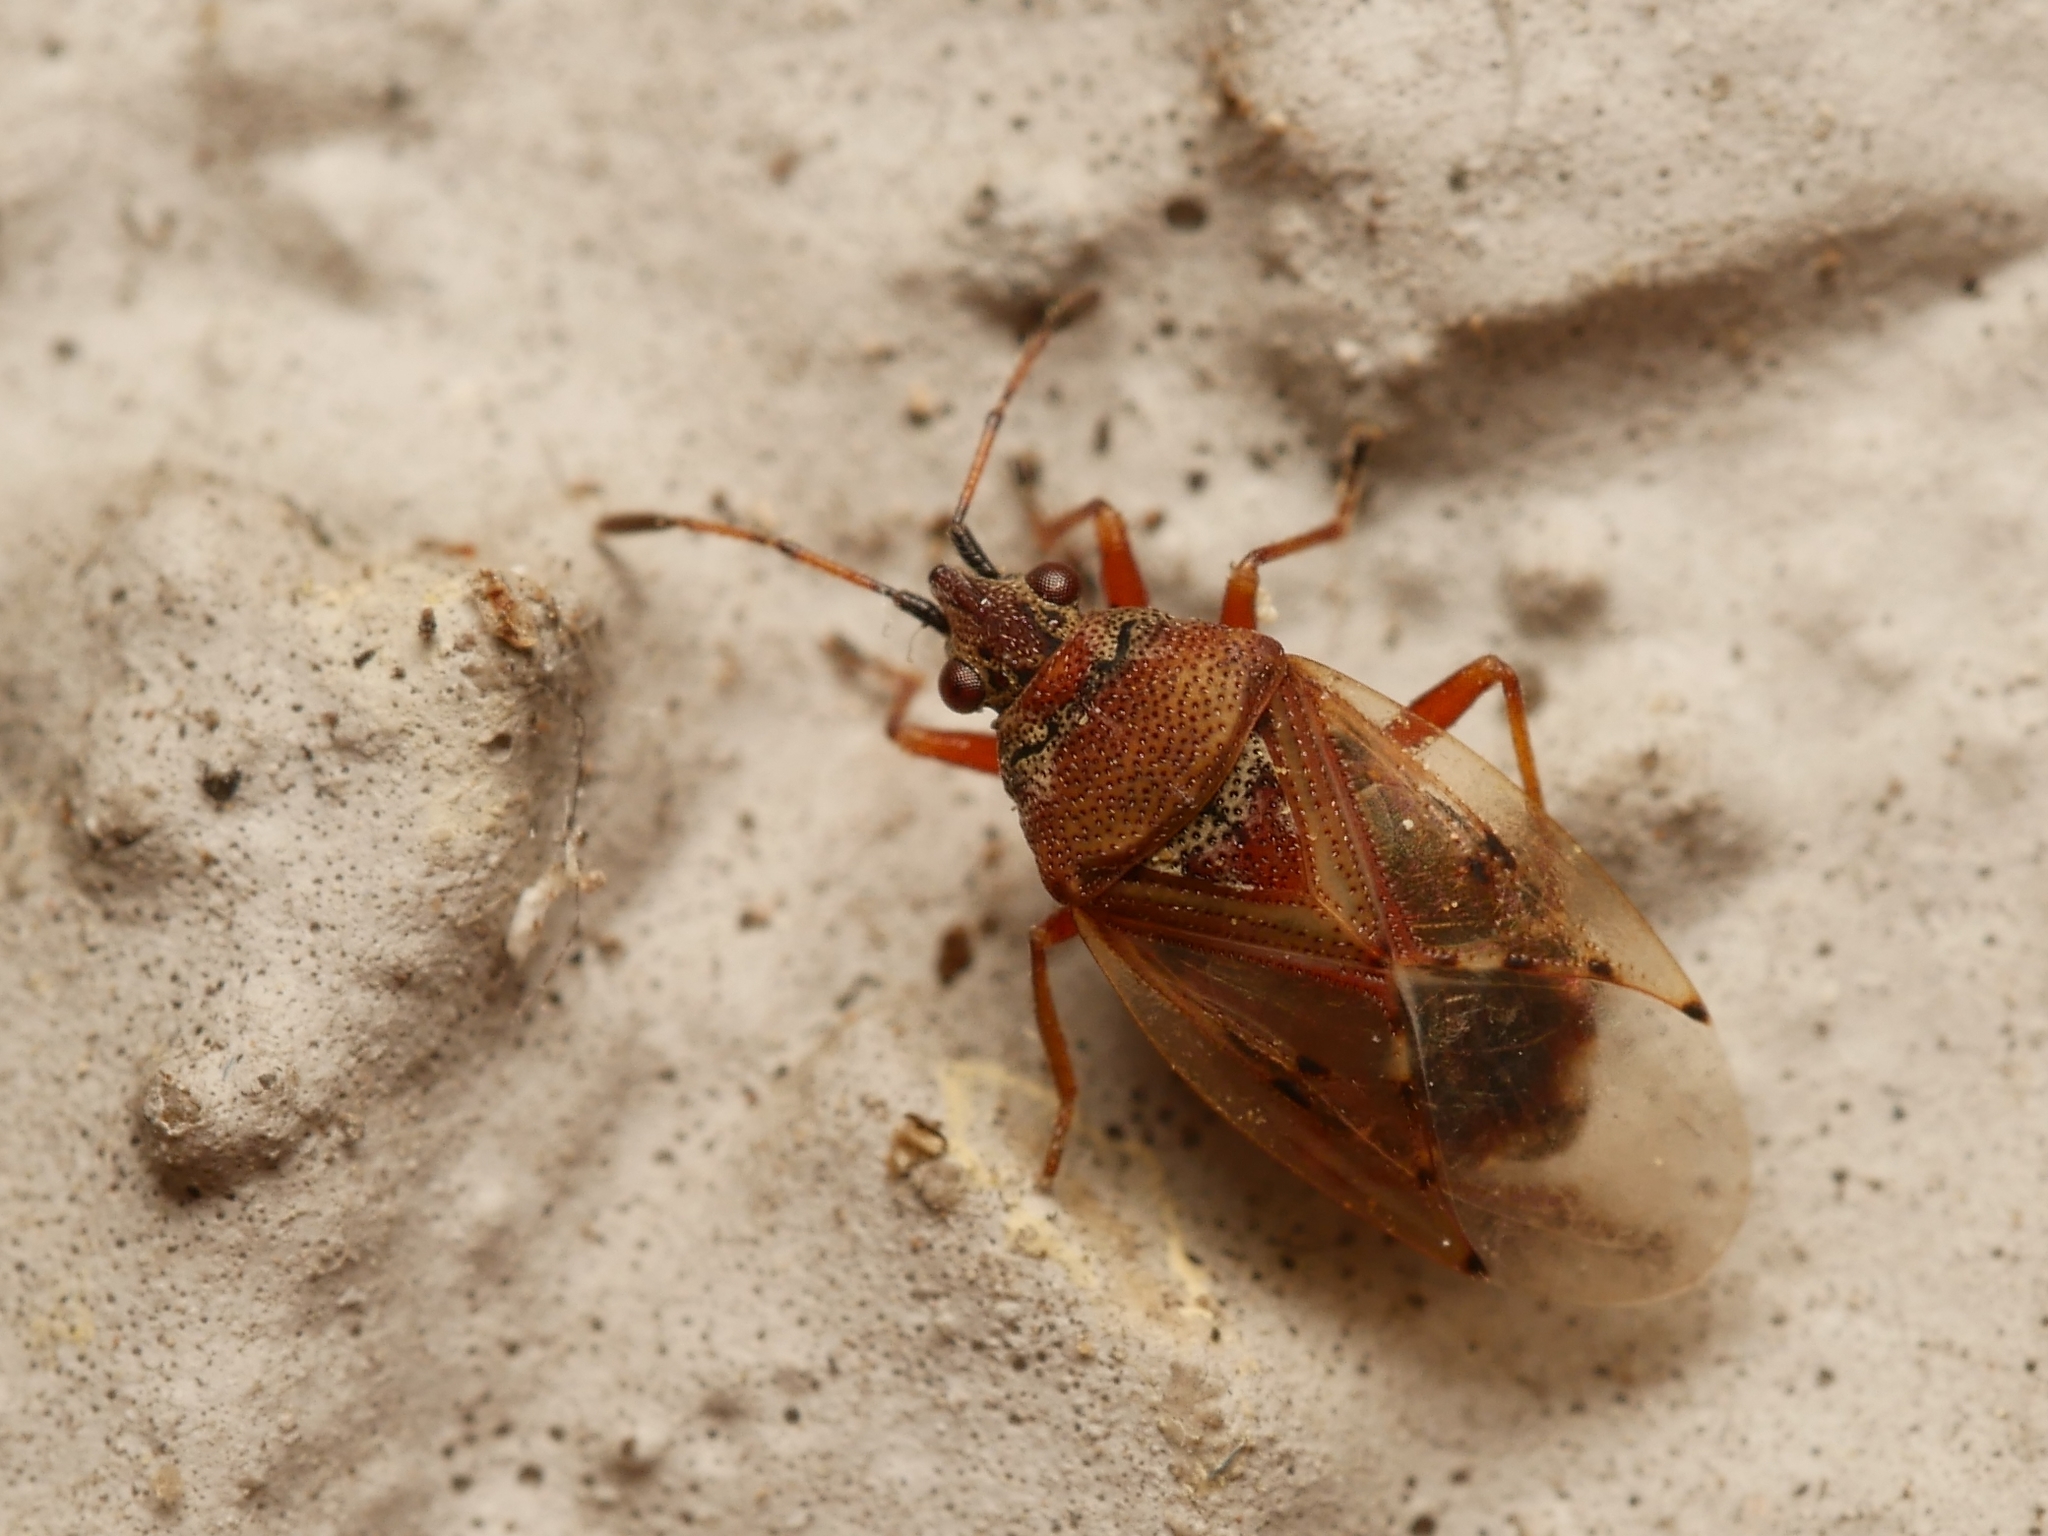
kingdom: Animalia
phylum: Arthropoda
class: Insecta
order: Hemiptera
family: Lygaeidae
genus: Kleidocerys
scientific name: Kleidocerys resedae
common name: Birch catkin bug
